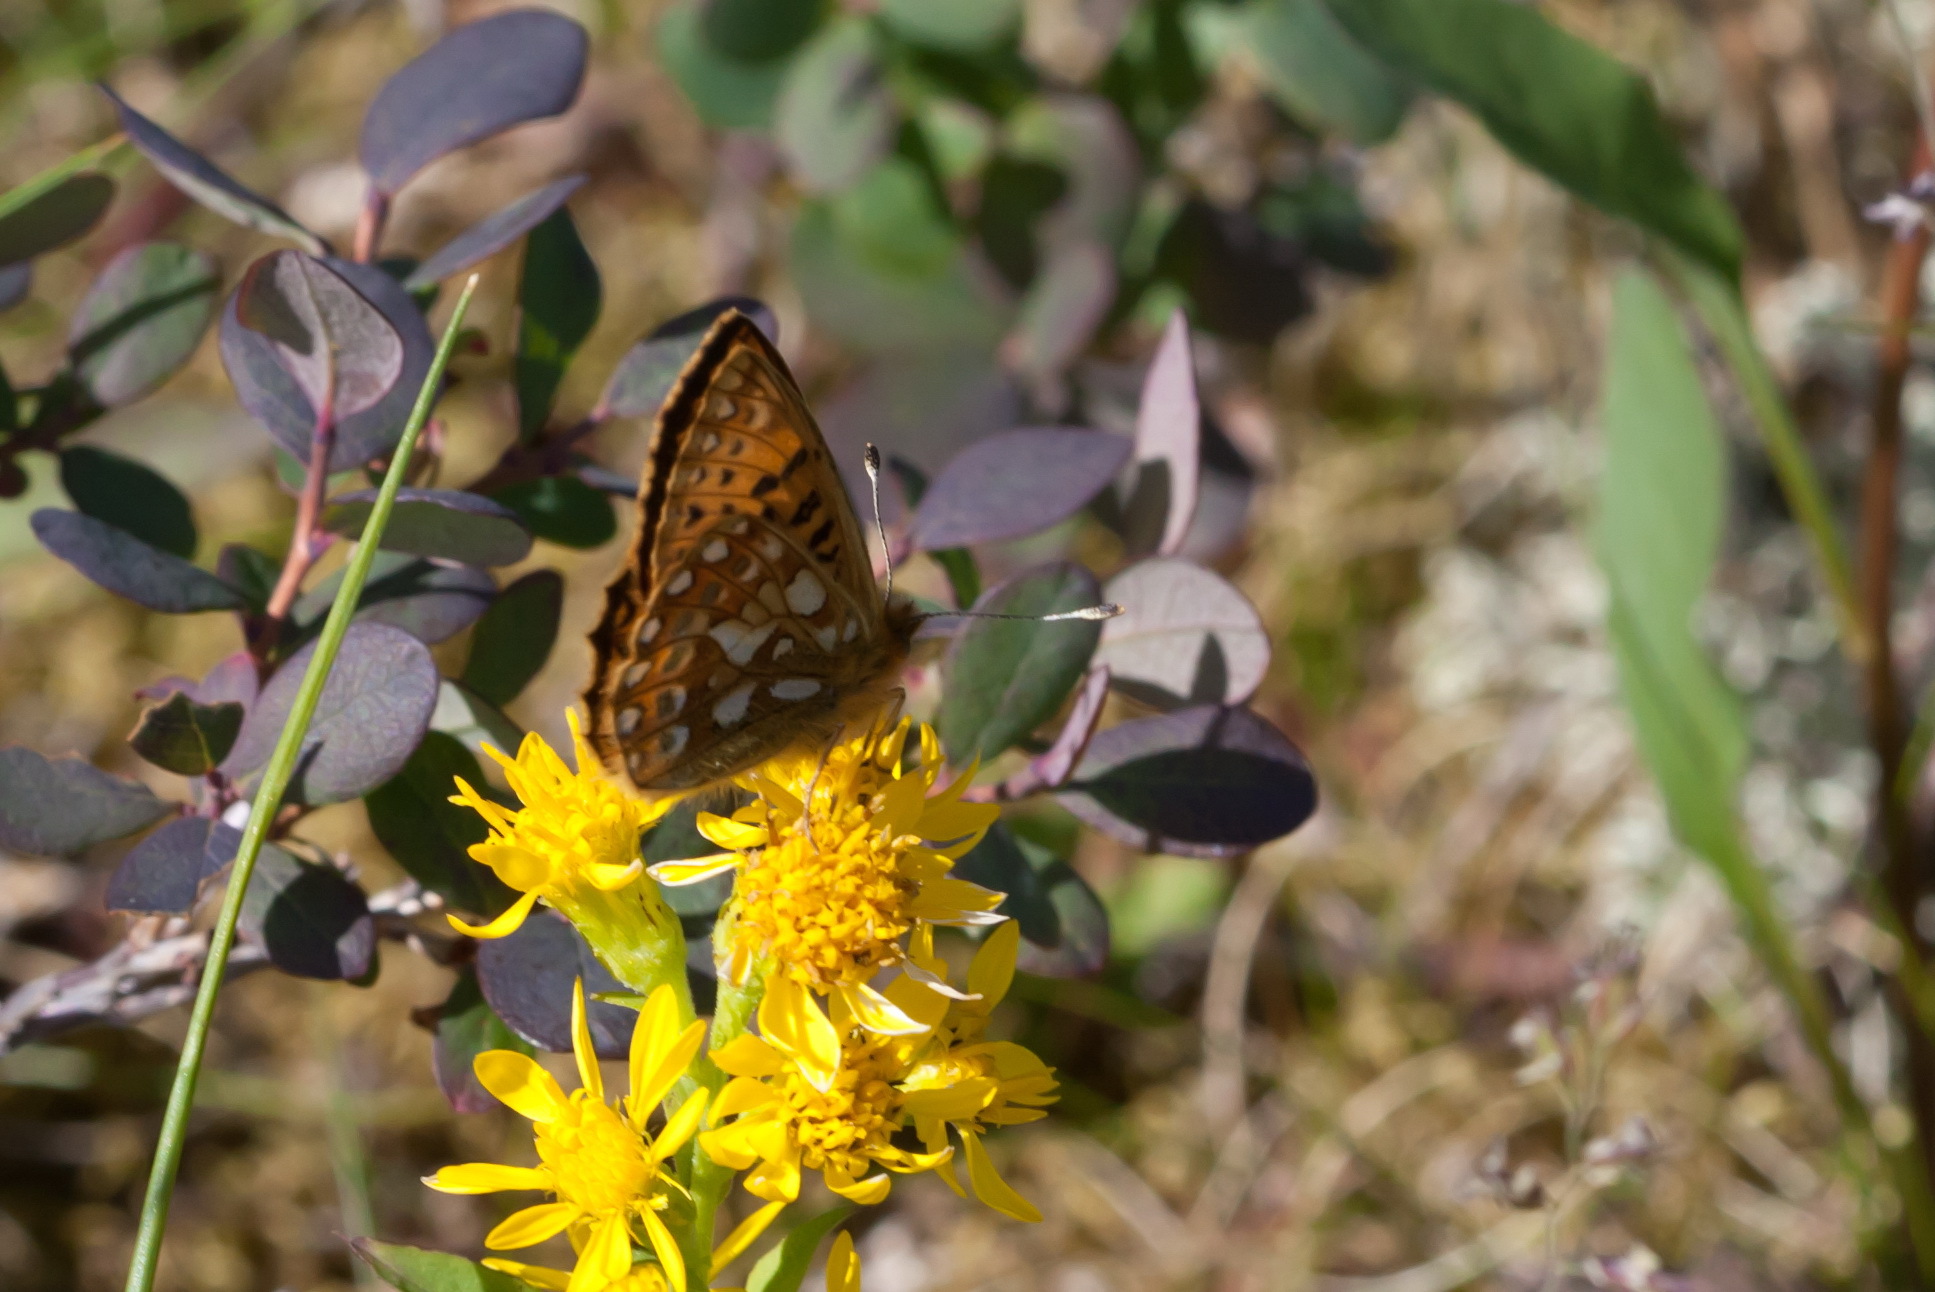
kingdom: Animalia
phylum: Arthropoda
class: Insecta
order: Lepidoptera
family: Nymphalidae
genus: Issoria
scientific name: Issoria eugenia
